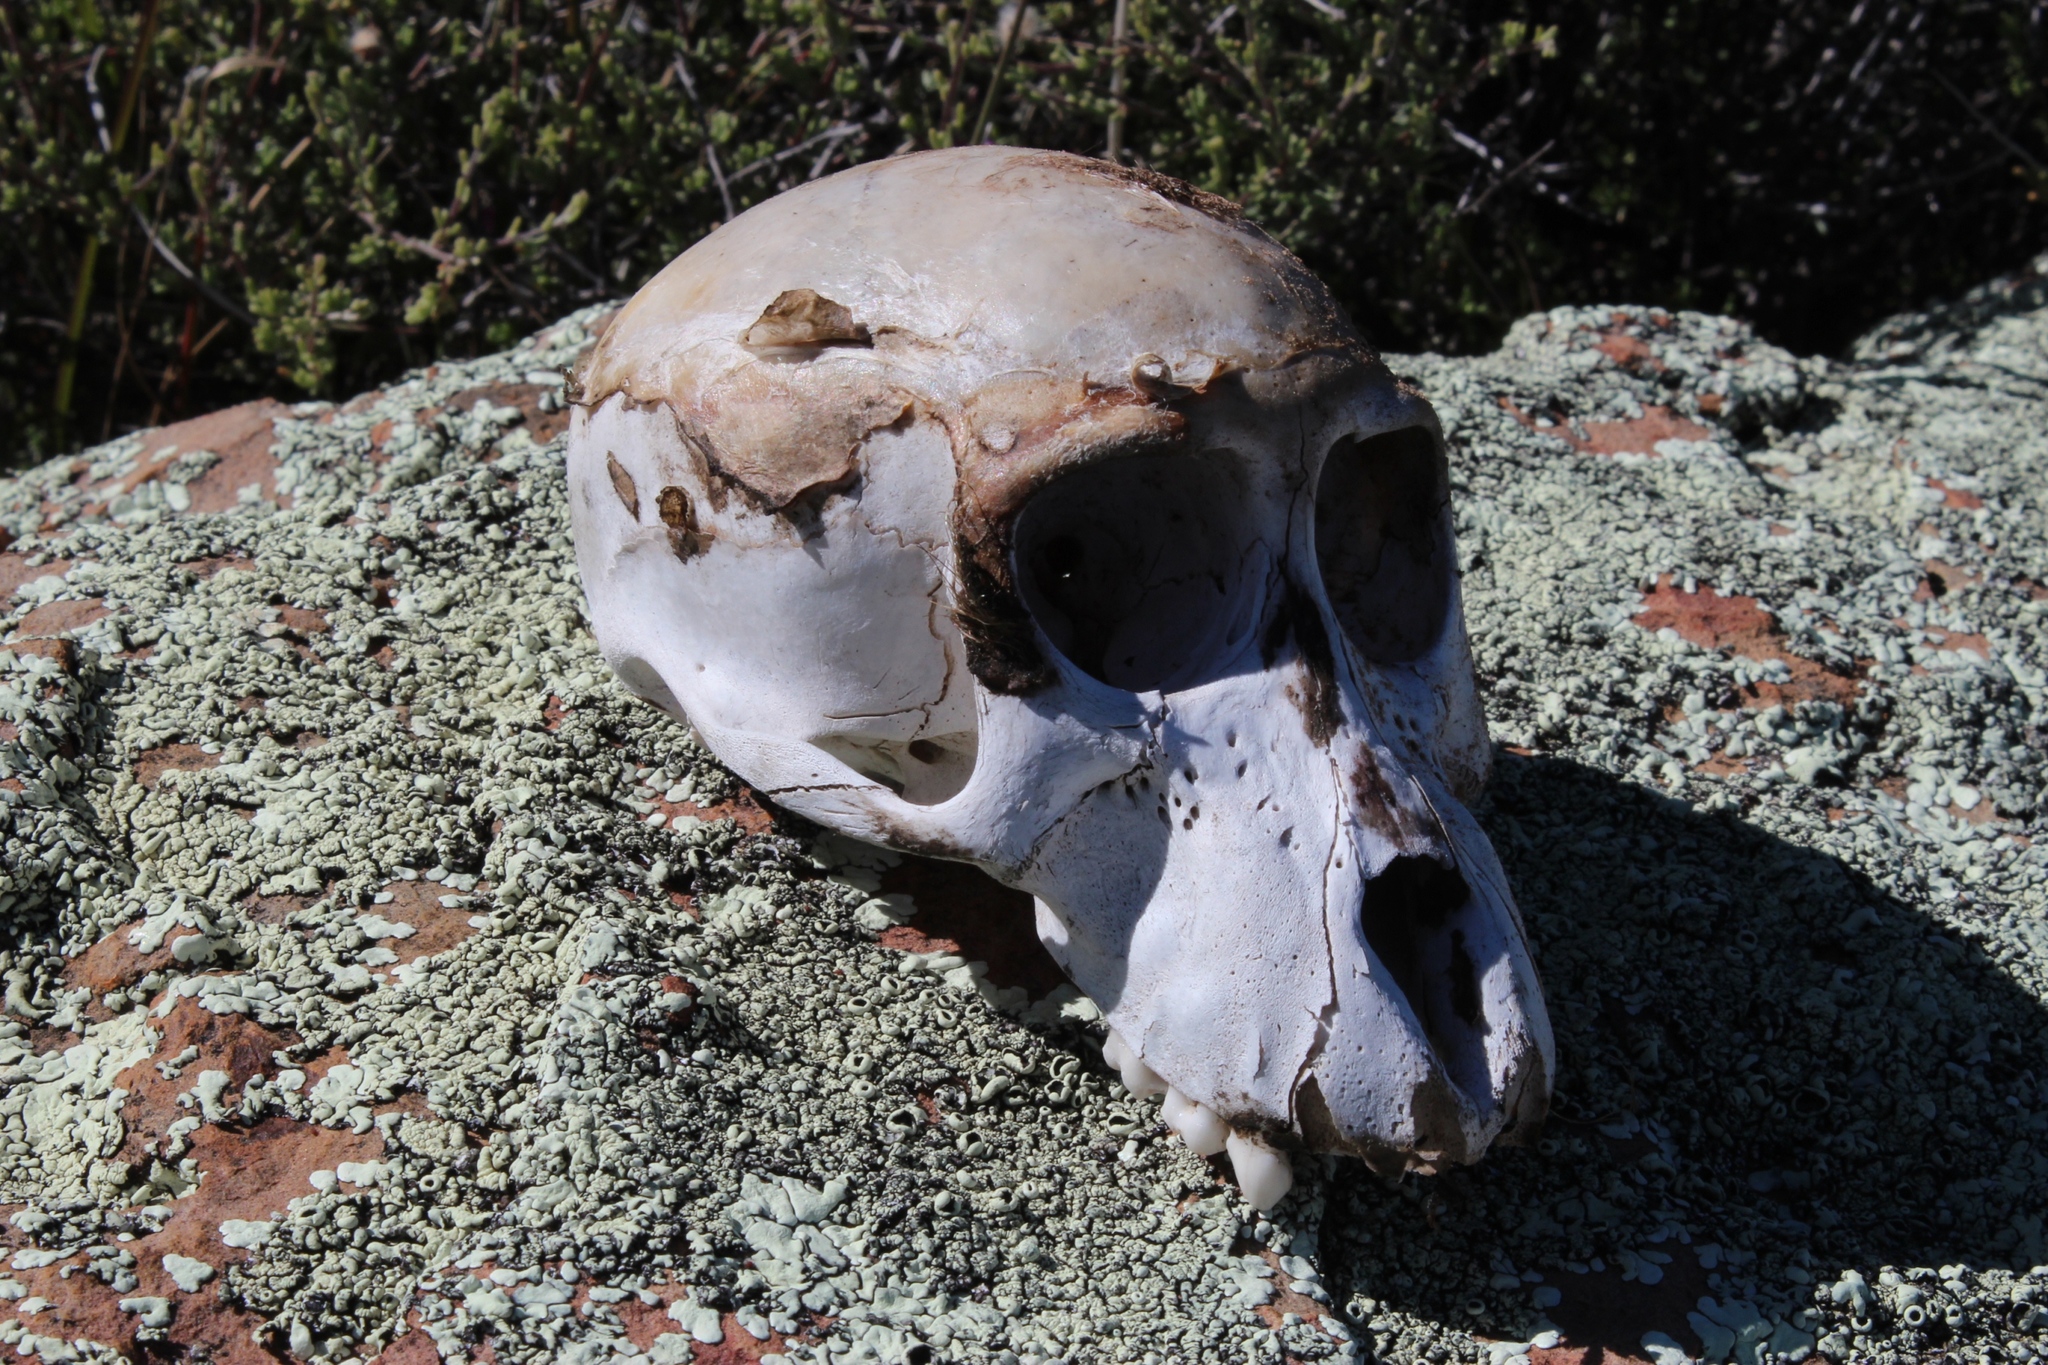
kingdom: Animalia
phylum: Chordata
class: Mammalia
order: Primates
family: Cercopithecidae
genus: Papio
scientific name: Papio ursinus
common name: Chacma baboon
